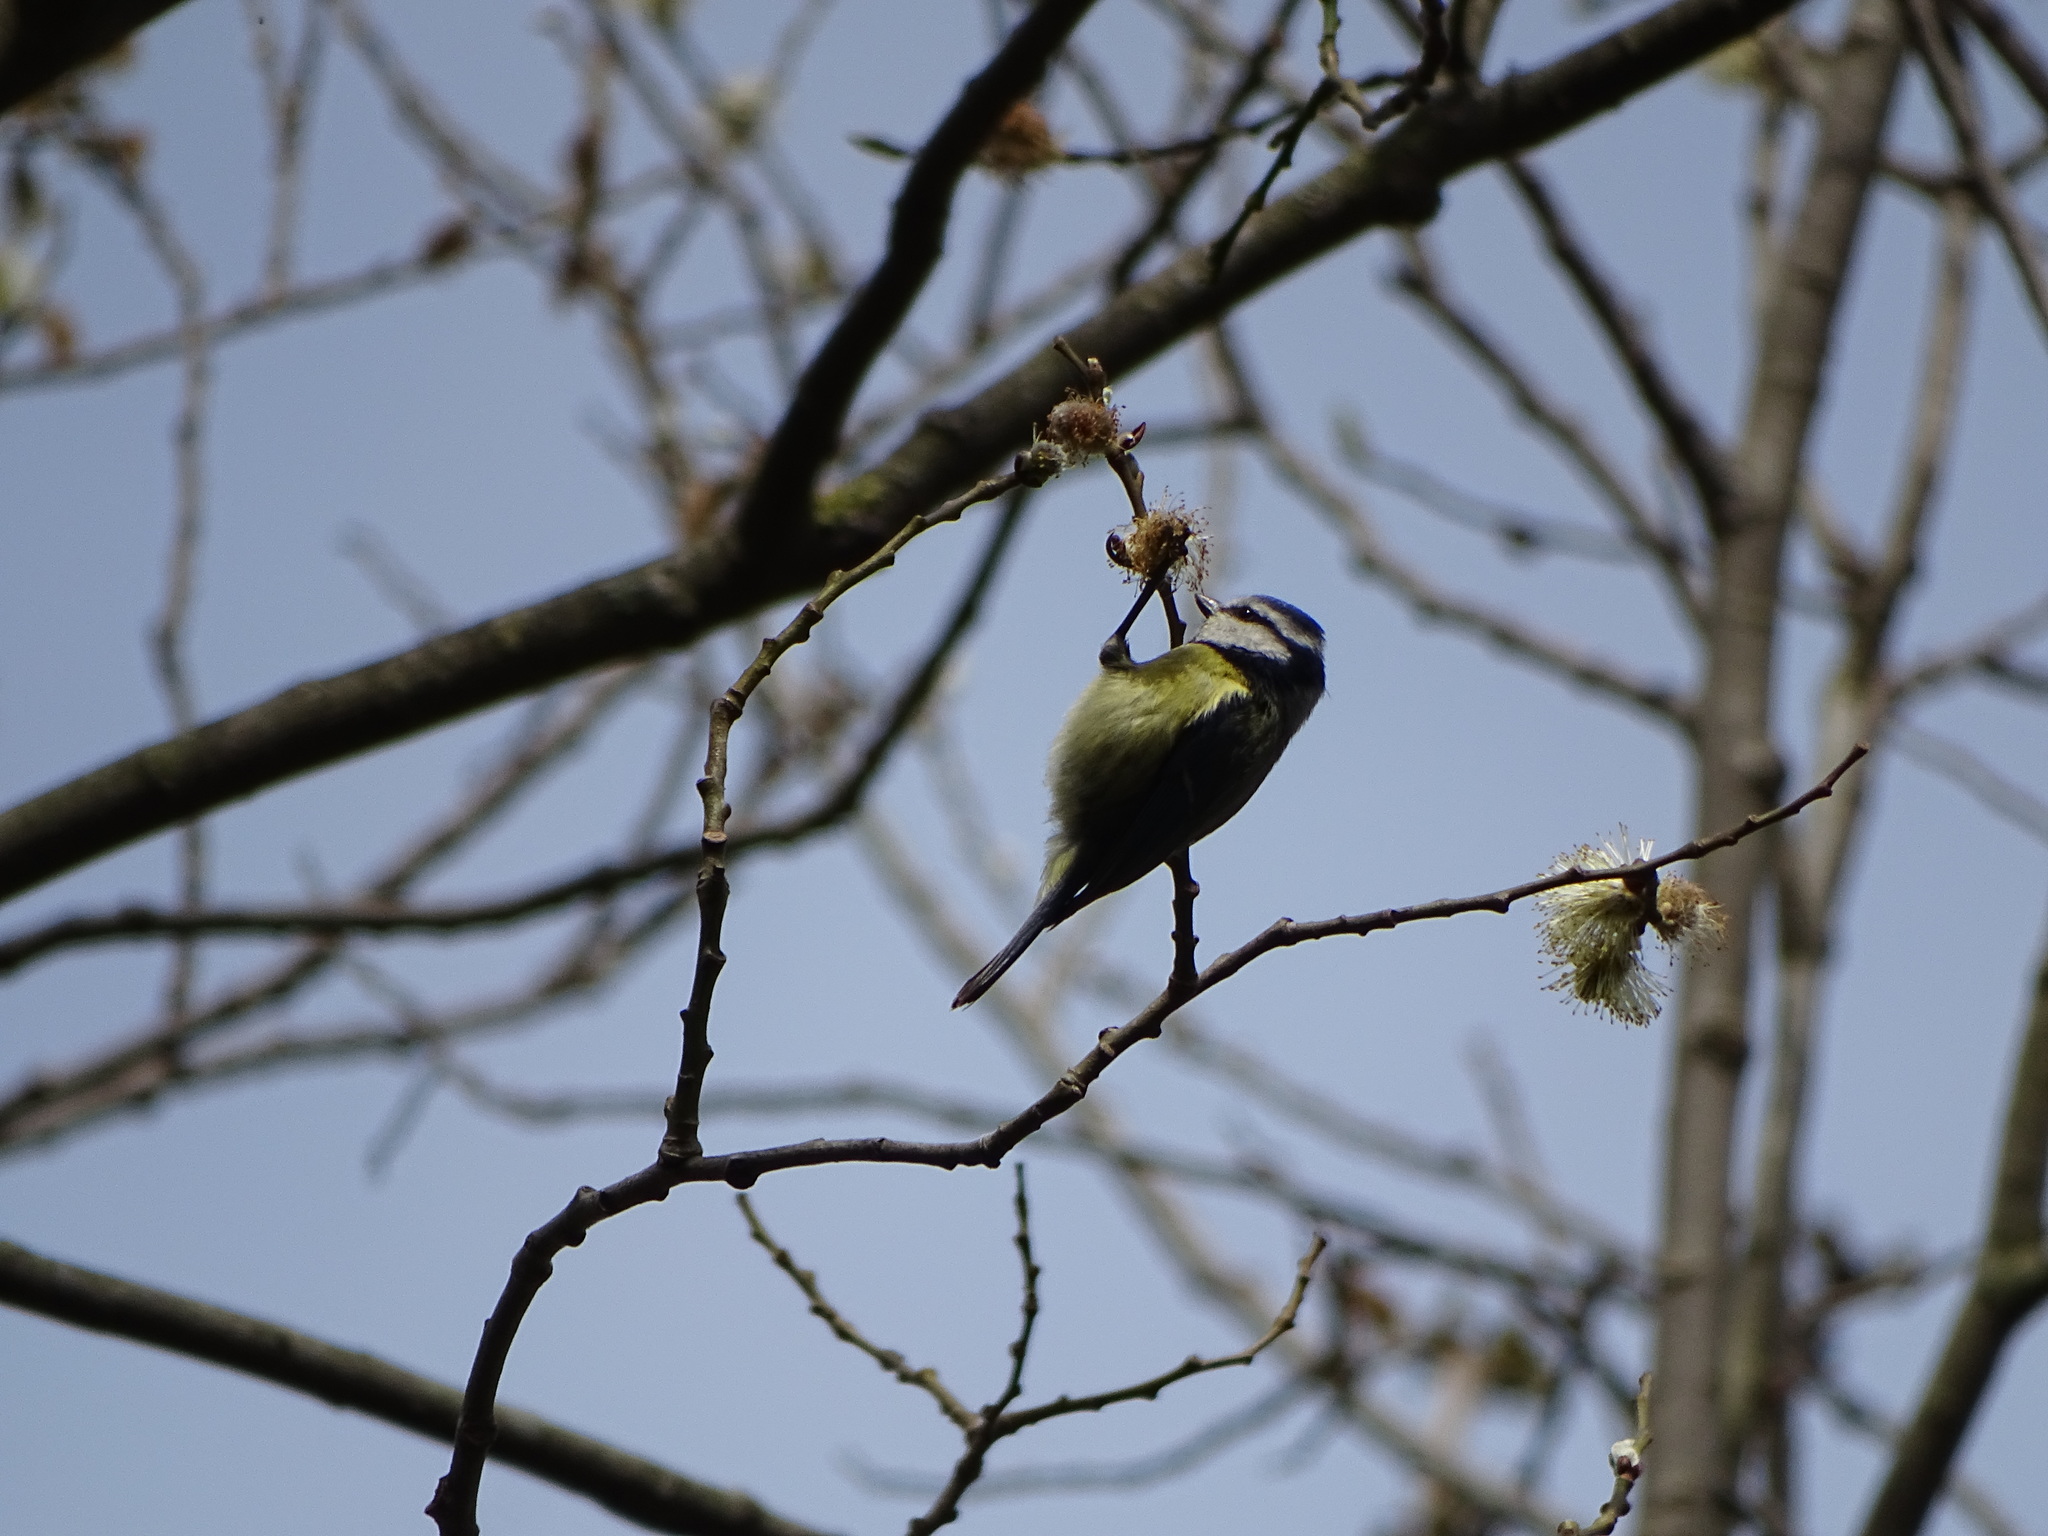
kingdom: Animalia
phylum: Chordata
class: Aves
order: Passeriformes
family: Paridae
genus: Cyanistes
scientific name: Cyanistes caeruleus
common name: Eurasian blue tit
